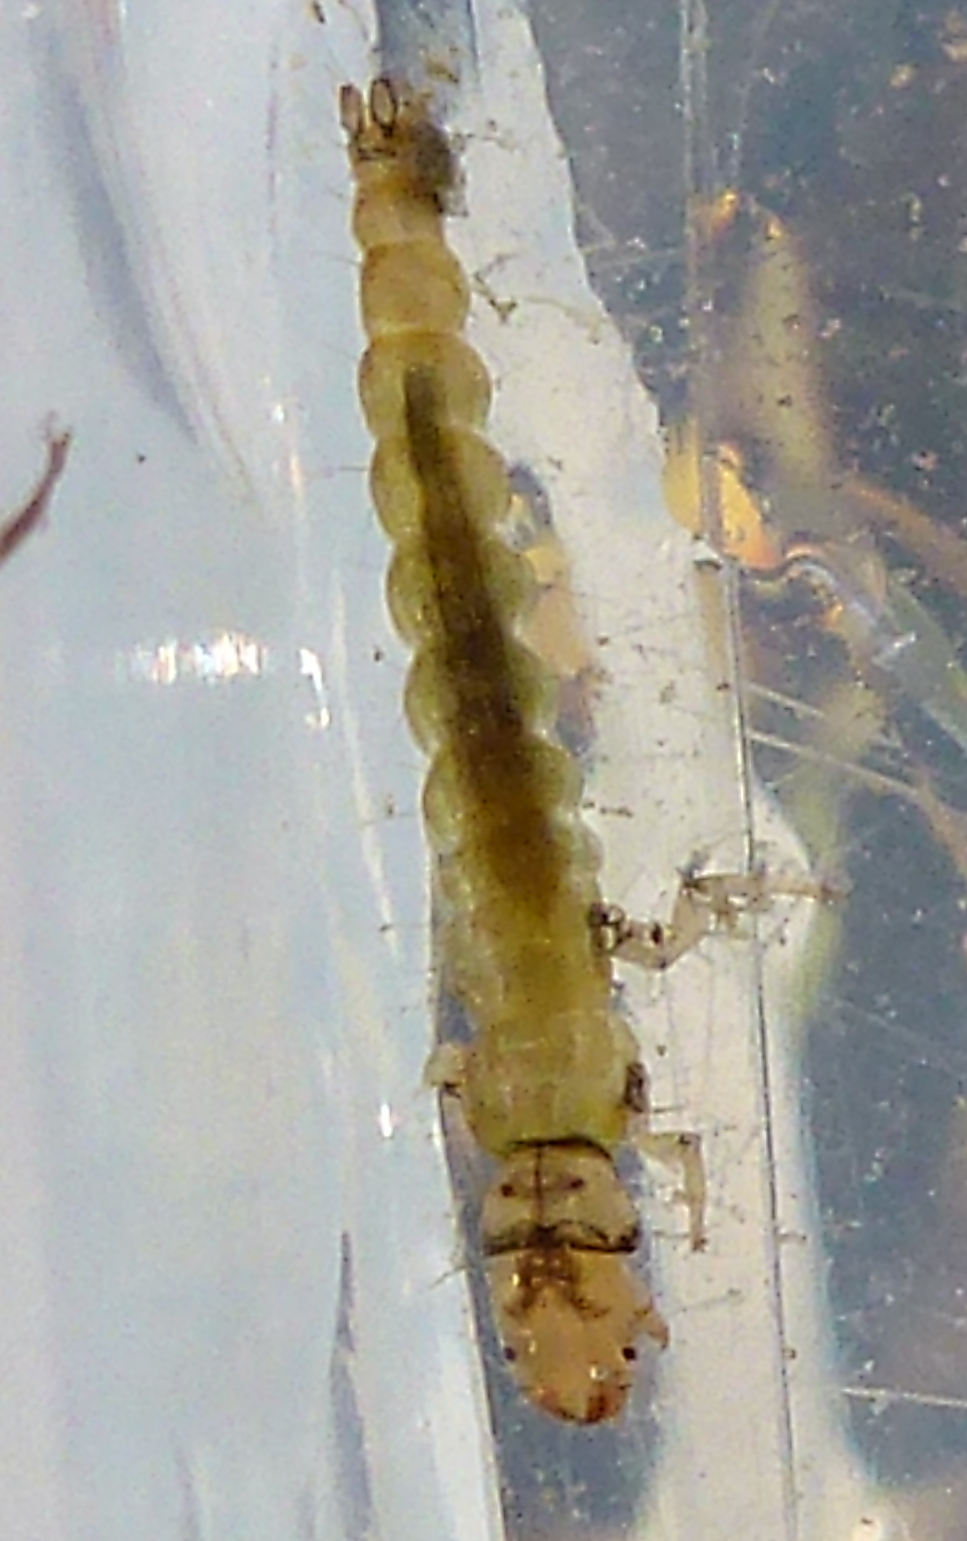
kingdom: Animalia
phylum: Arthropoda
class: Insecta
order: Trichoptera
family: Hydrobiosidae
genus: Hydrobiosis
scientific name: Hydrobiosis umbripennis
